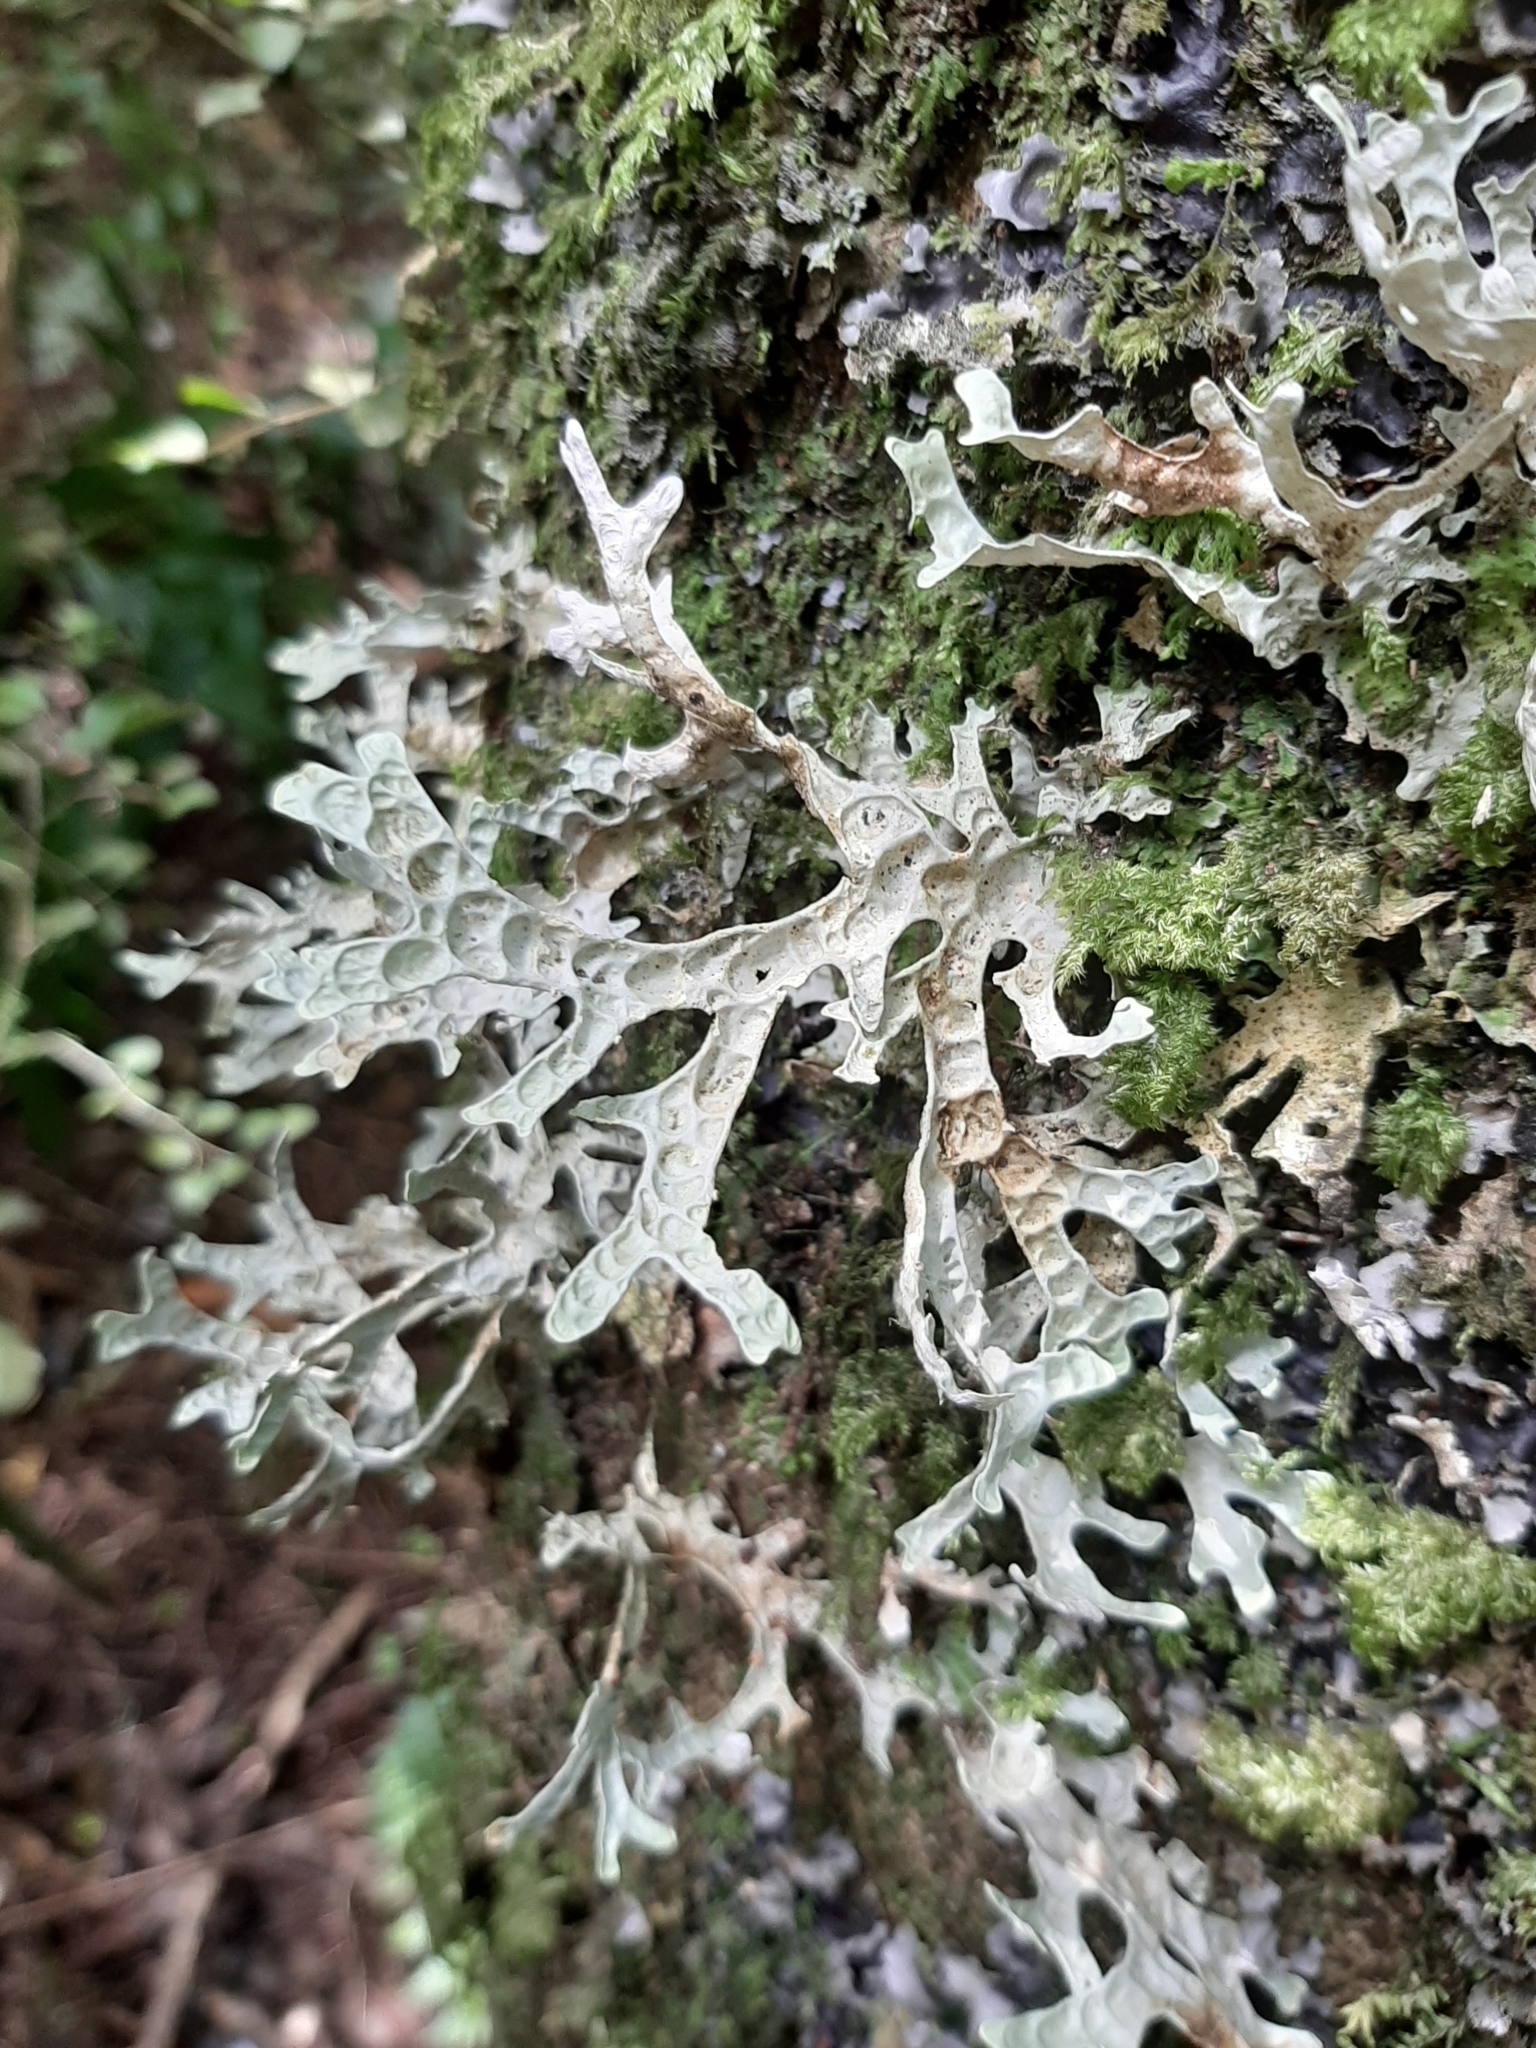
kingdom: Fungi
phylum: Ascomycota
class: Lecanoromycetes
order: Peltigerales
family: Lobariaceae
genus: Pseudocyphellaria
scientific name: Pseudocyphellaria rufovirescens
